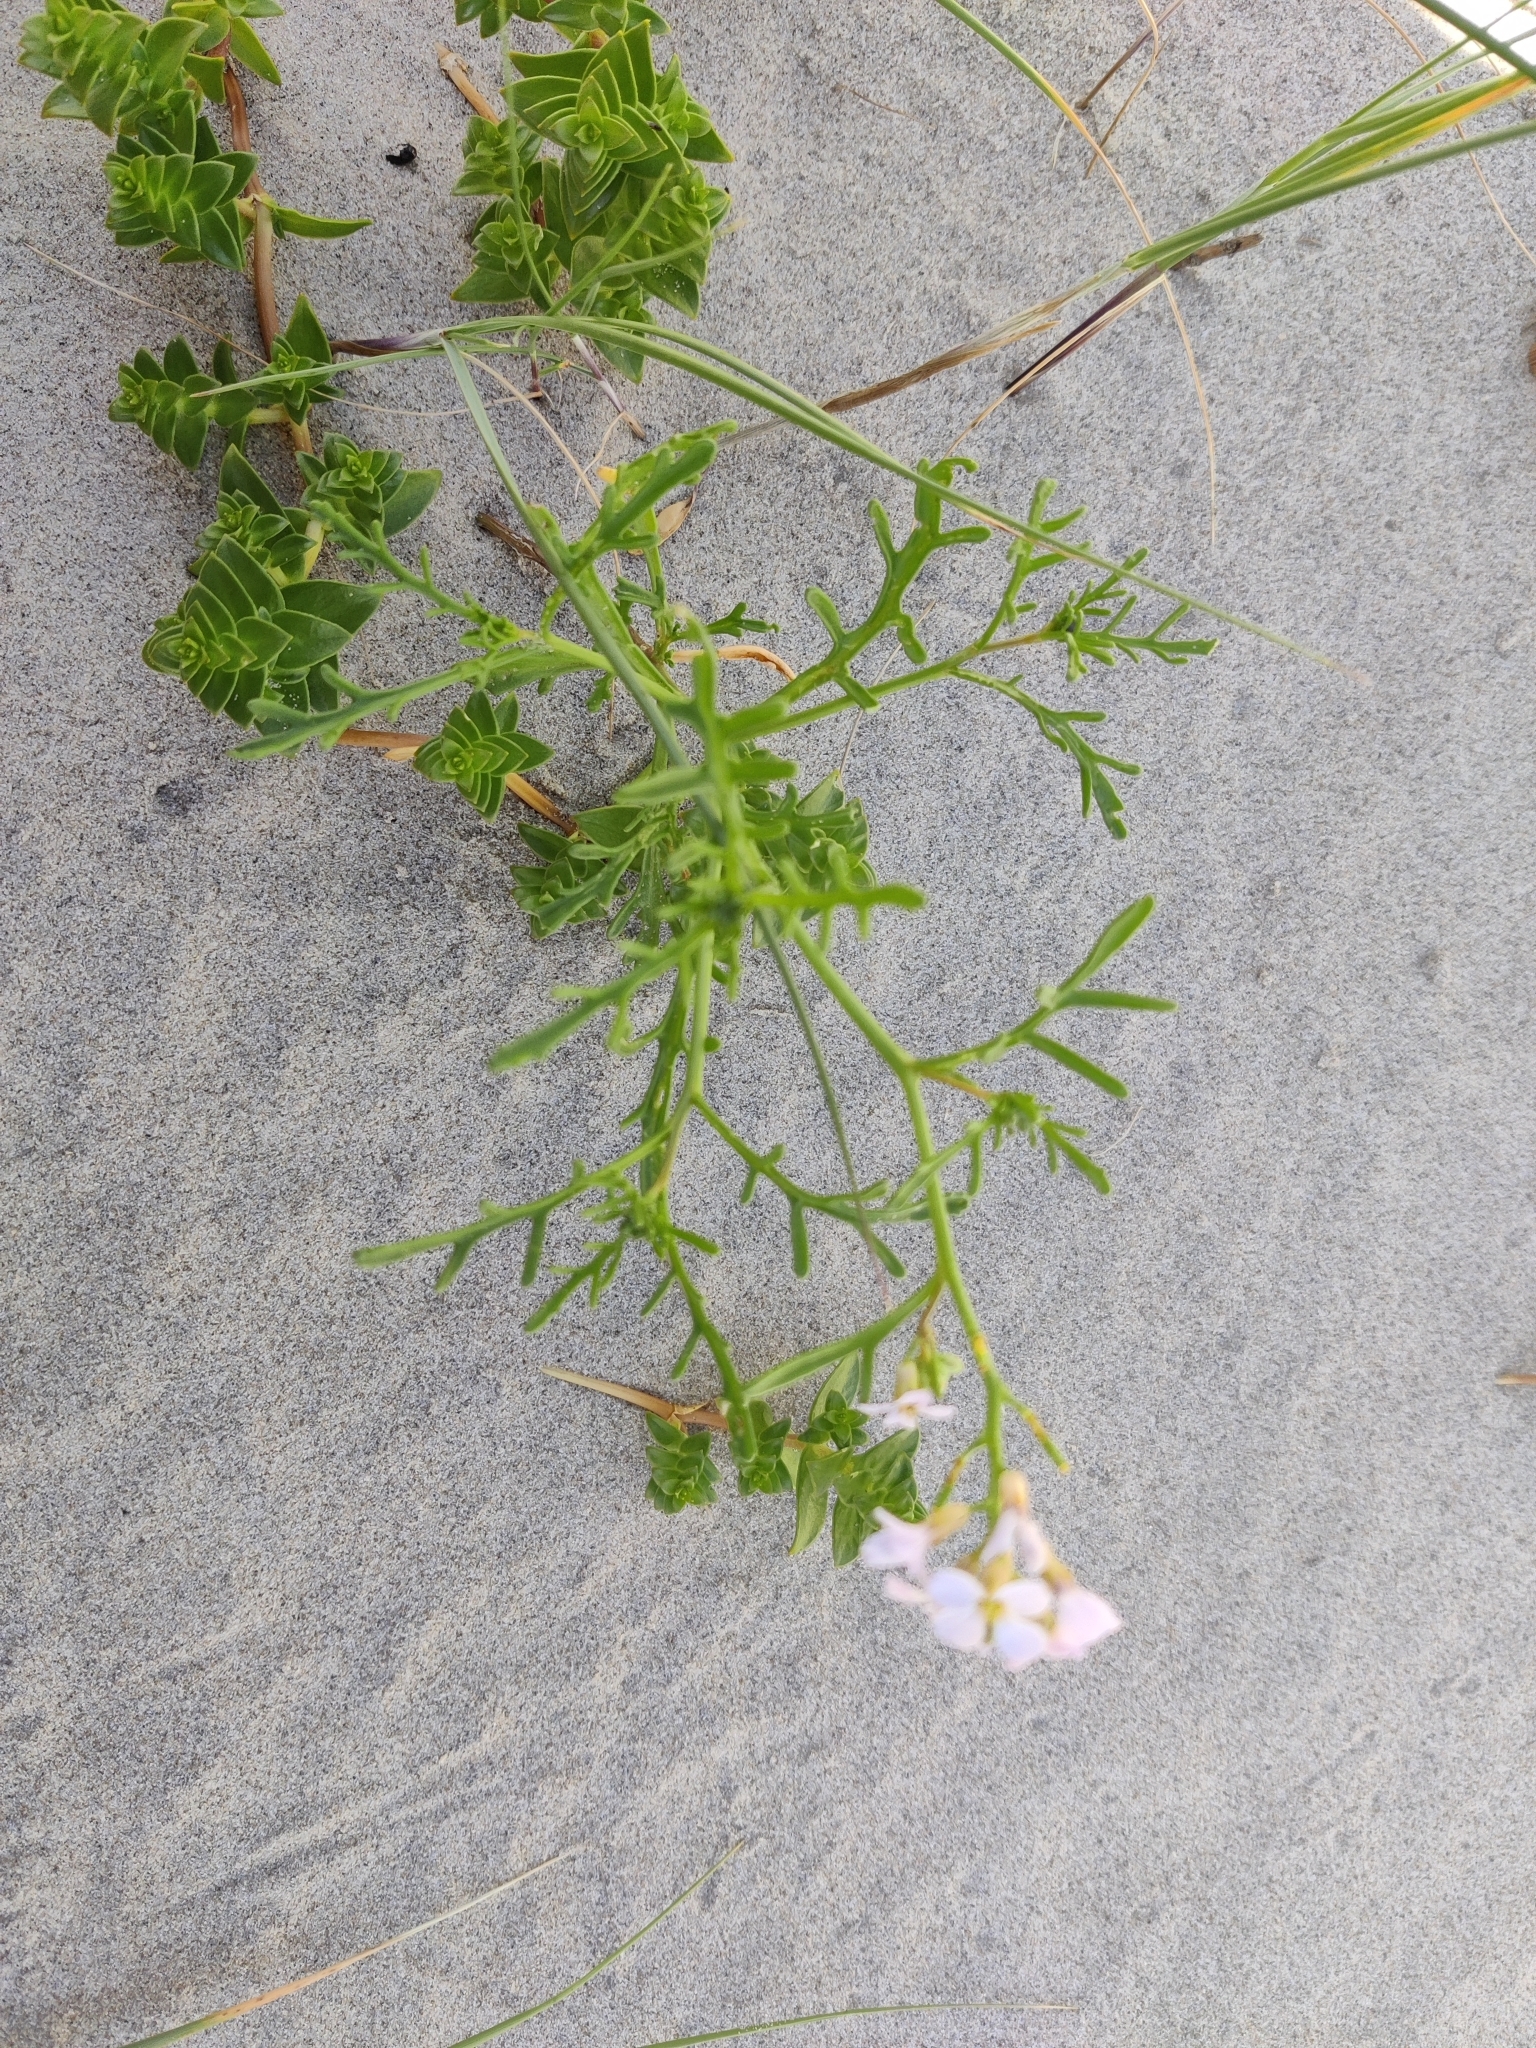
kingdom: Plantae
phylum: Tracheophyta
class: Magnoliopsida
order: Brassicales
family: Brassicaceae
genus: Cakile
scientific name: Cakile maritima
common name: Sea rocket
